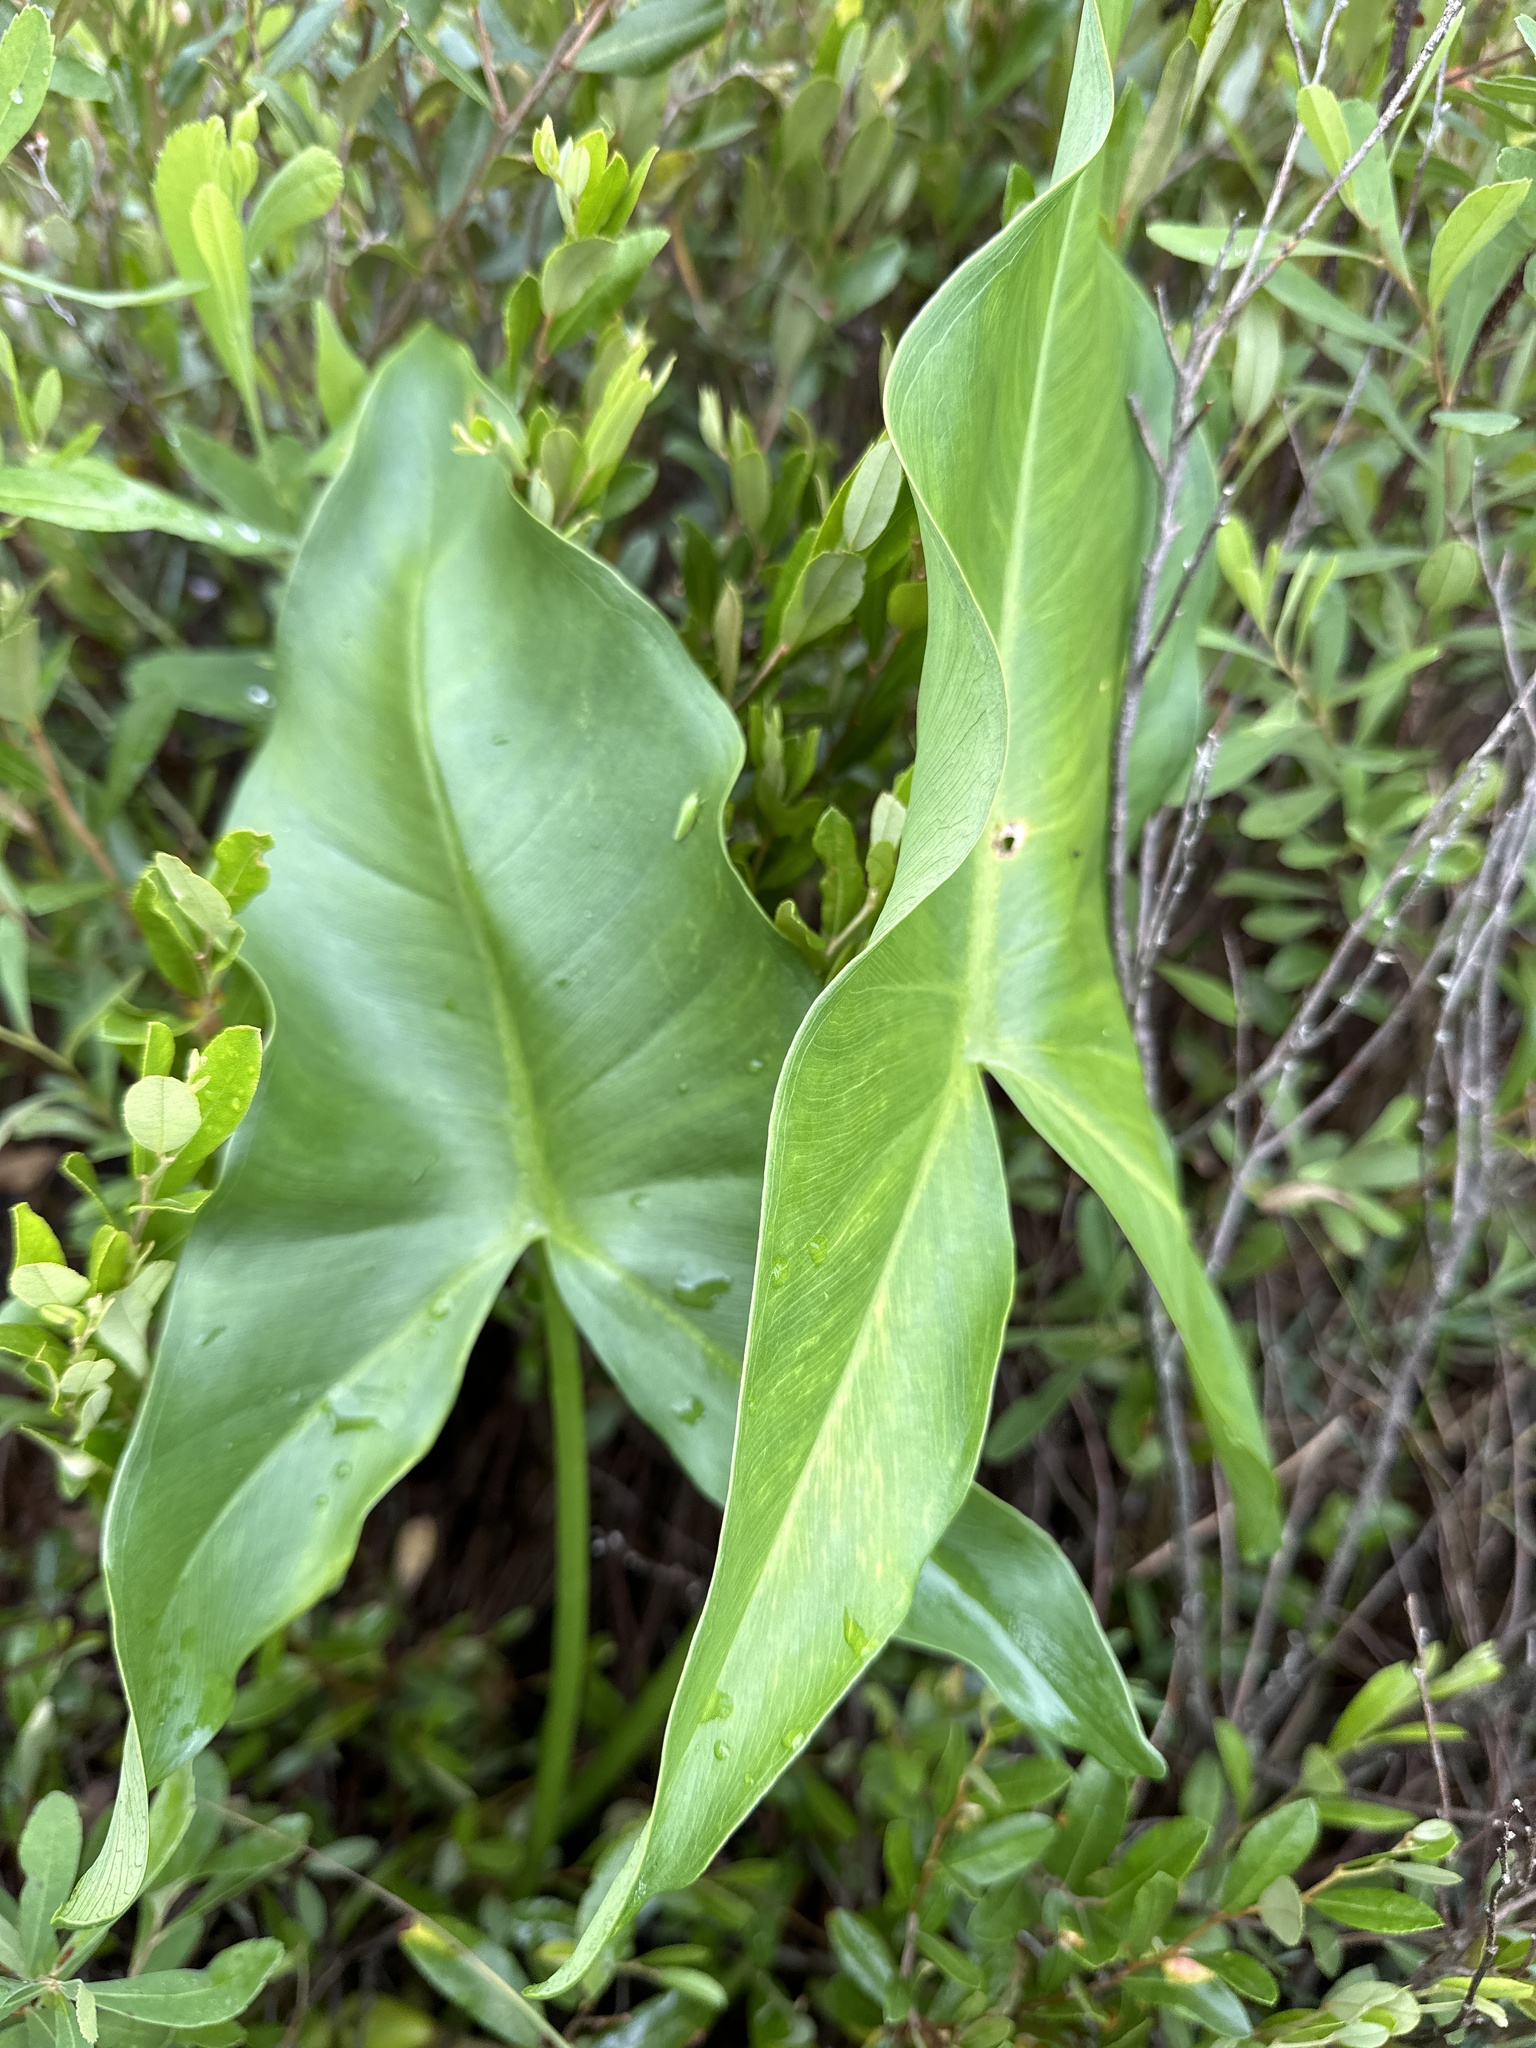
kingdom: Plantae
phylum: Tracheophyta
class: Liliopsida
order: Alismatales
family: Araceae
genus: Peltandra
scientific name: Peltandra virginica
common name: Arrow arum
